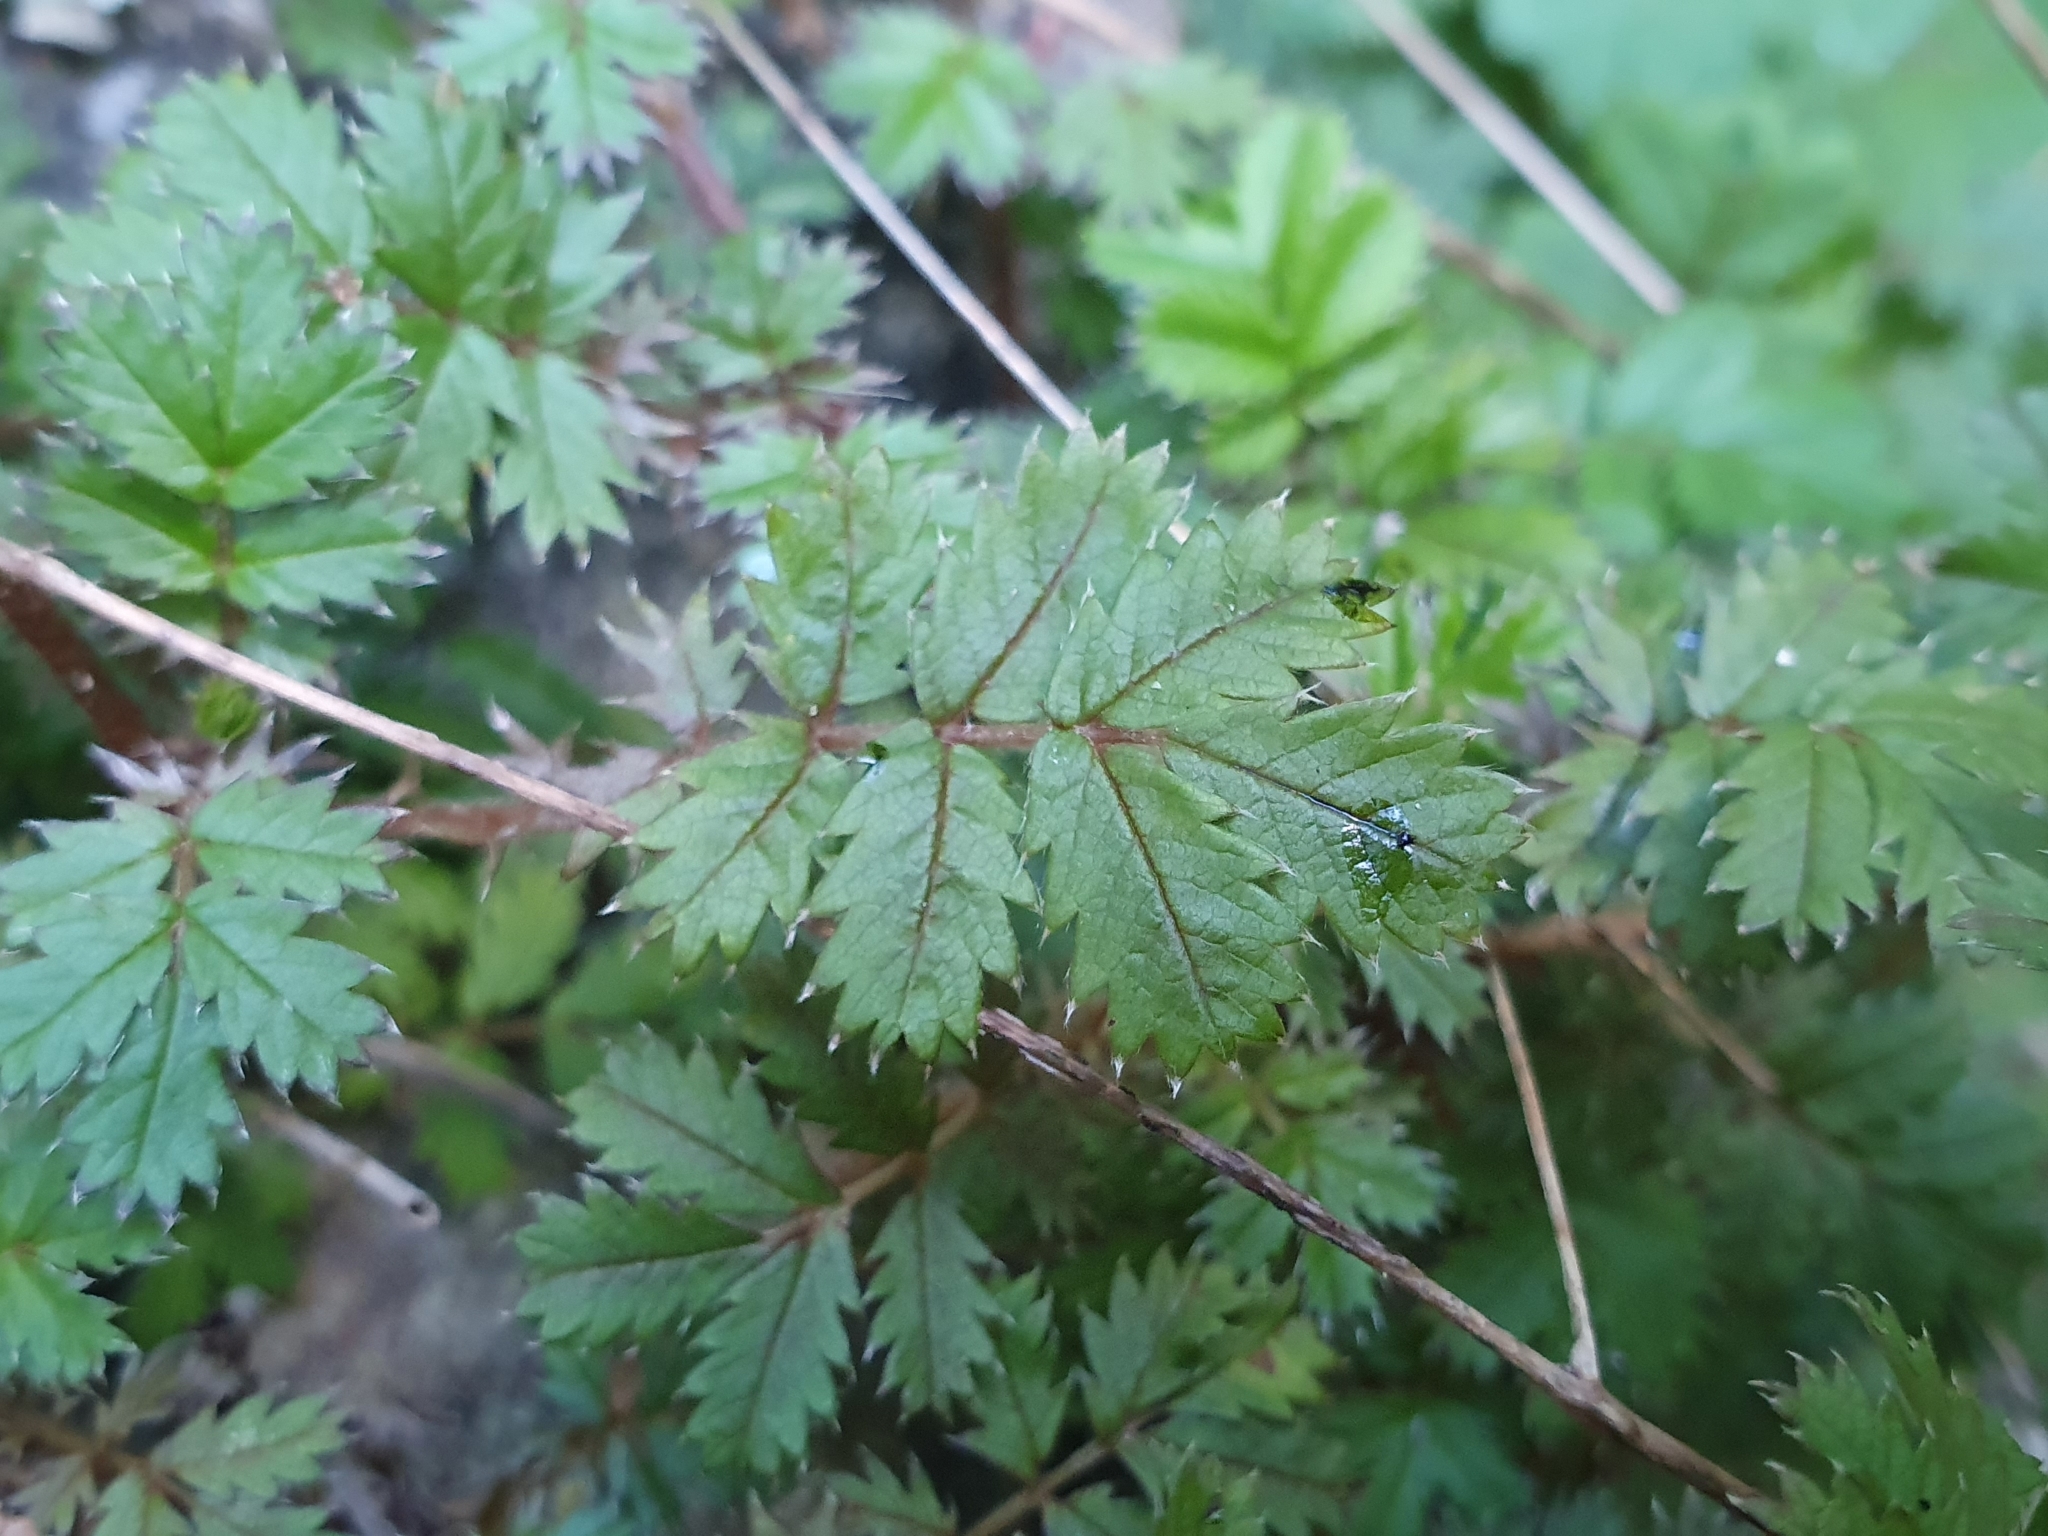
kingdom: Plantae
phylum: Tracheophyta
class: Magnoliopsida
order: Rosales
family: Rosaceae
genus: Acaena
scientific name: Acaena anserinifolia
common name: Bronze pirri-pirri-bur
